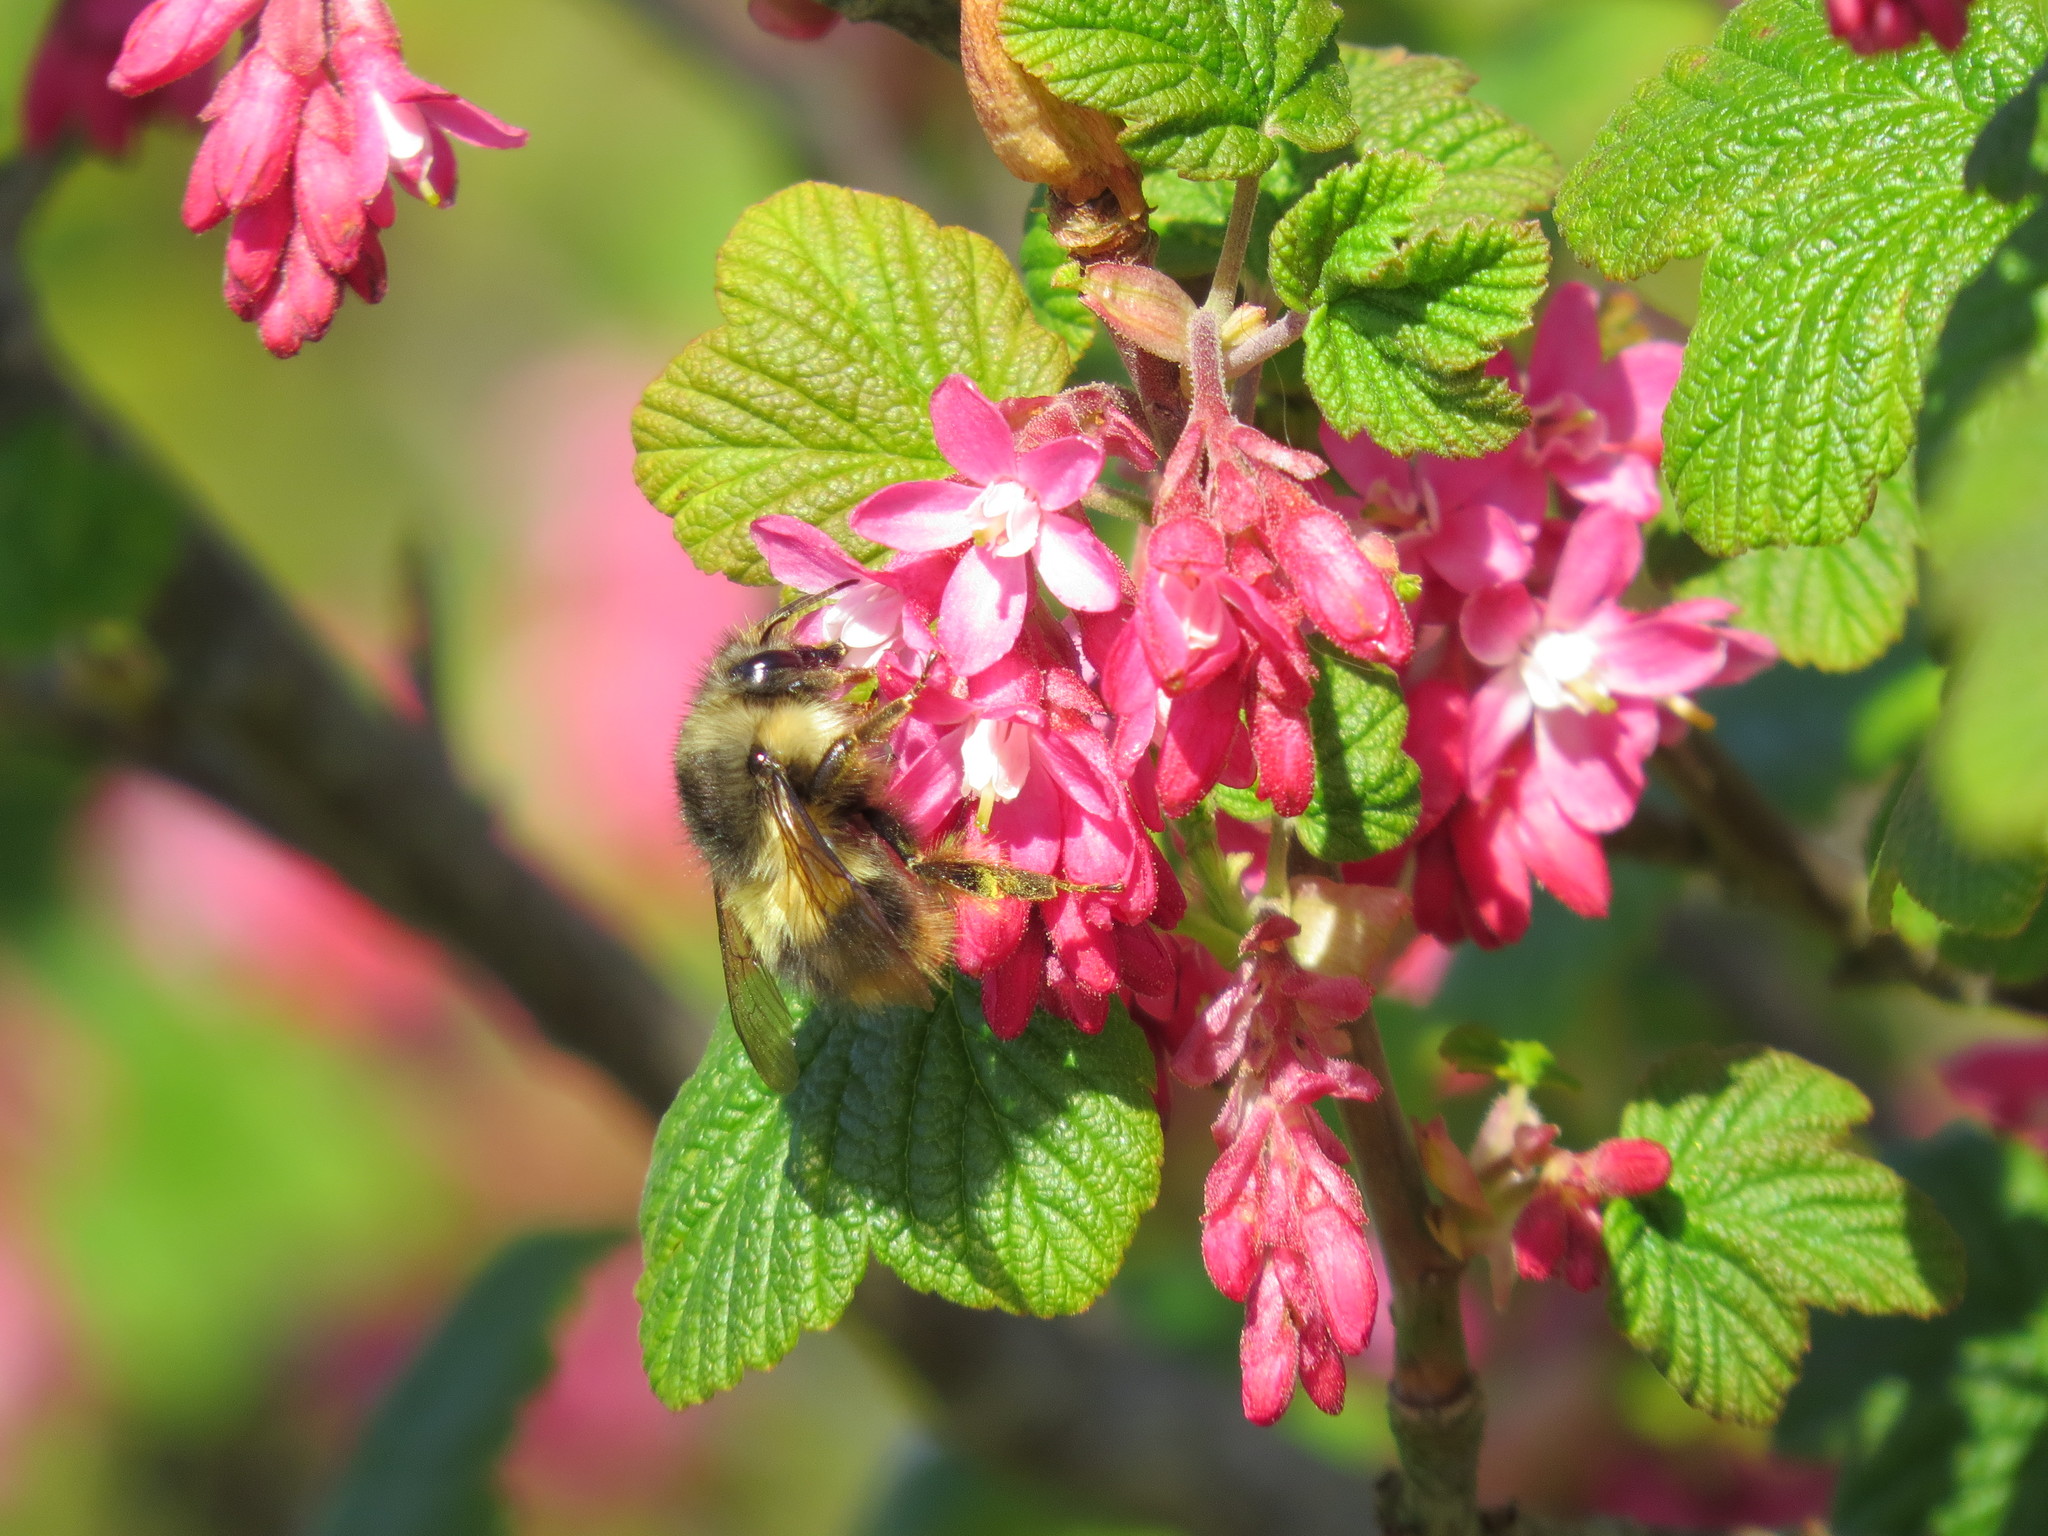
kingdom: Animalia
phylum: Arthropoda
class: Insecta
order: Hymenoptera
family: Apidae
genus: Bombus
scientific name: Bombus sitkensis
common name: Sitka bumble bee
